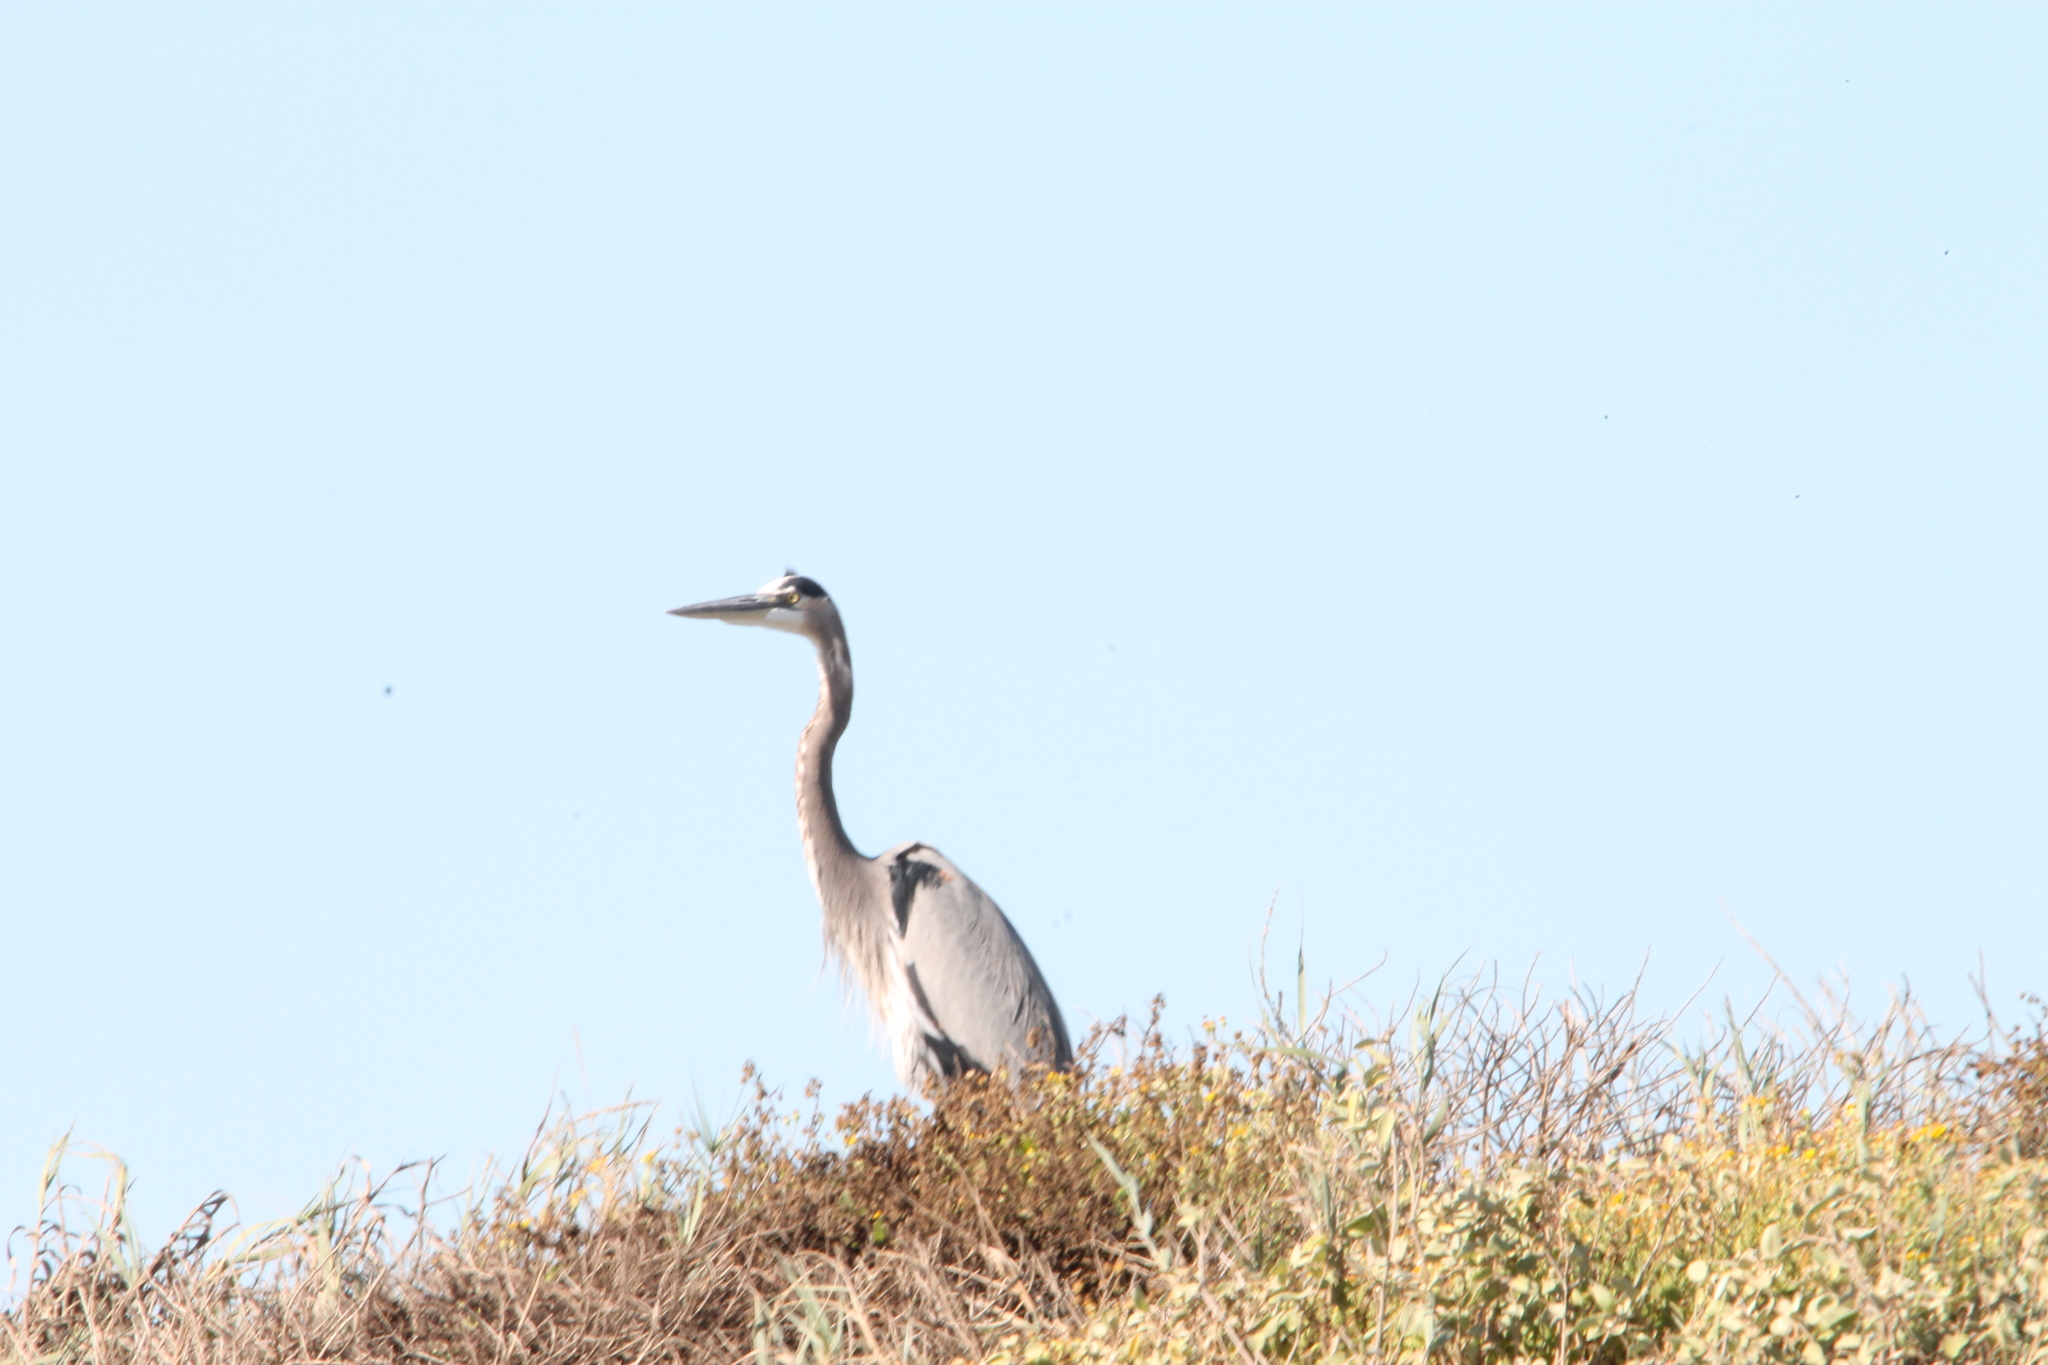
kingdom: Animalia
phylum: Chordata
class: Aves
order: Pelecaniformes
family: Ardeidae
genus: Ardea
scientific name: Ardea herodias
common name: Great blue heron
